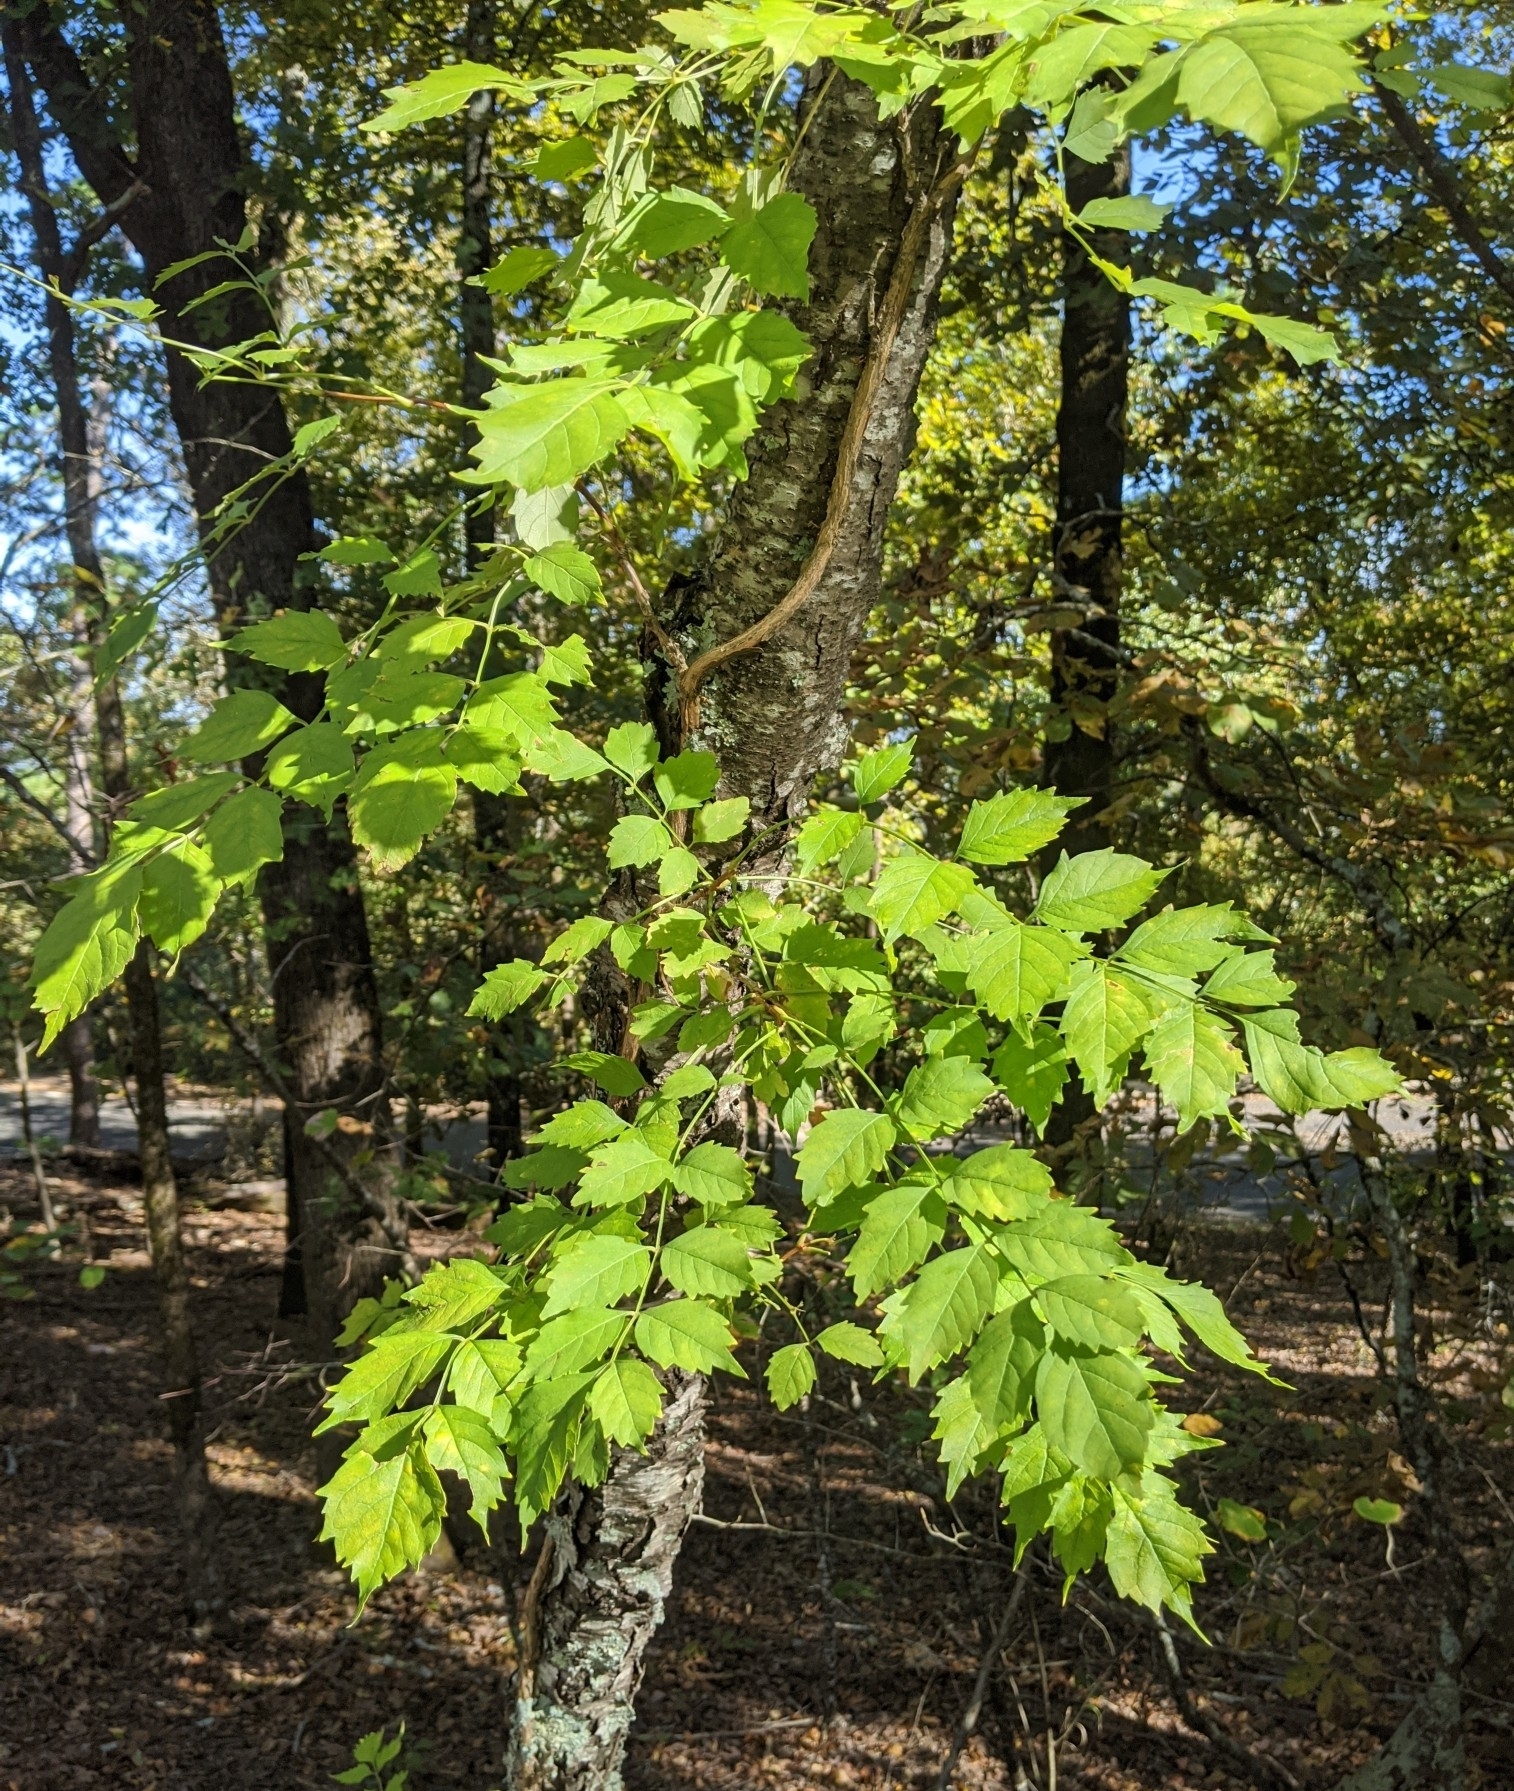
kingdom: Plantae
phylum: Tracheophyta
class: Magnoliopsida
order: Lamiales
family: Bignoniaceae
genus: Campsis
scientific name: Campsis radicans
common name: Trumpet-creeper
